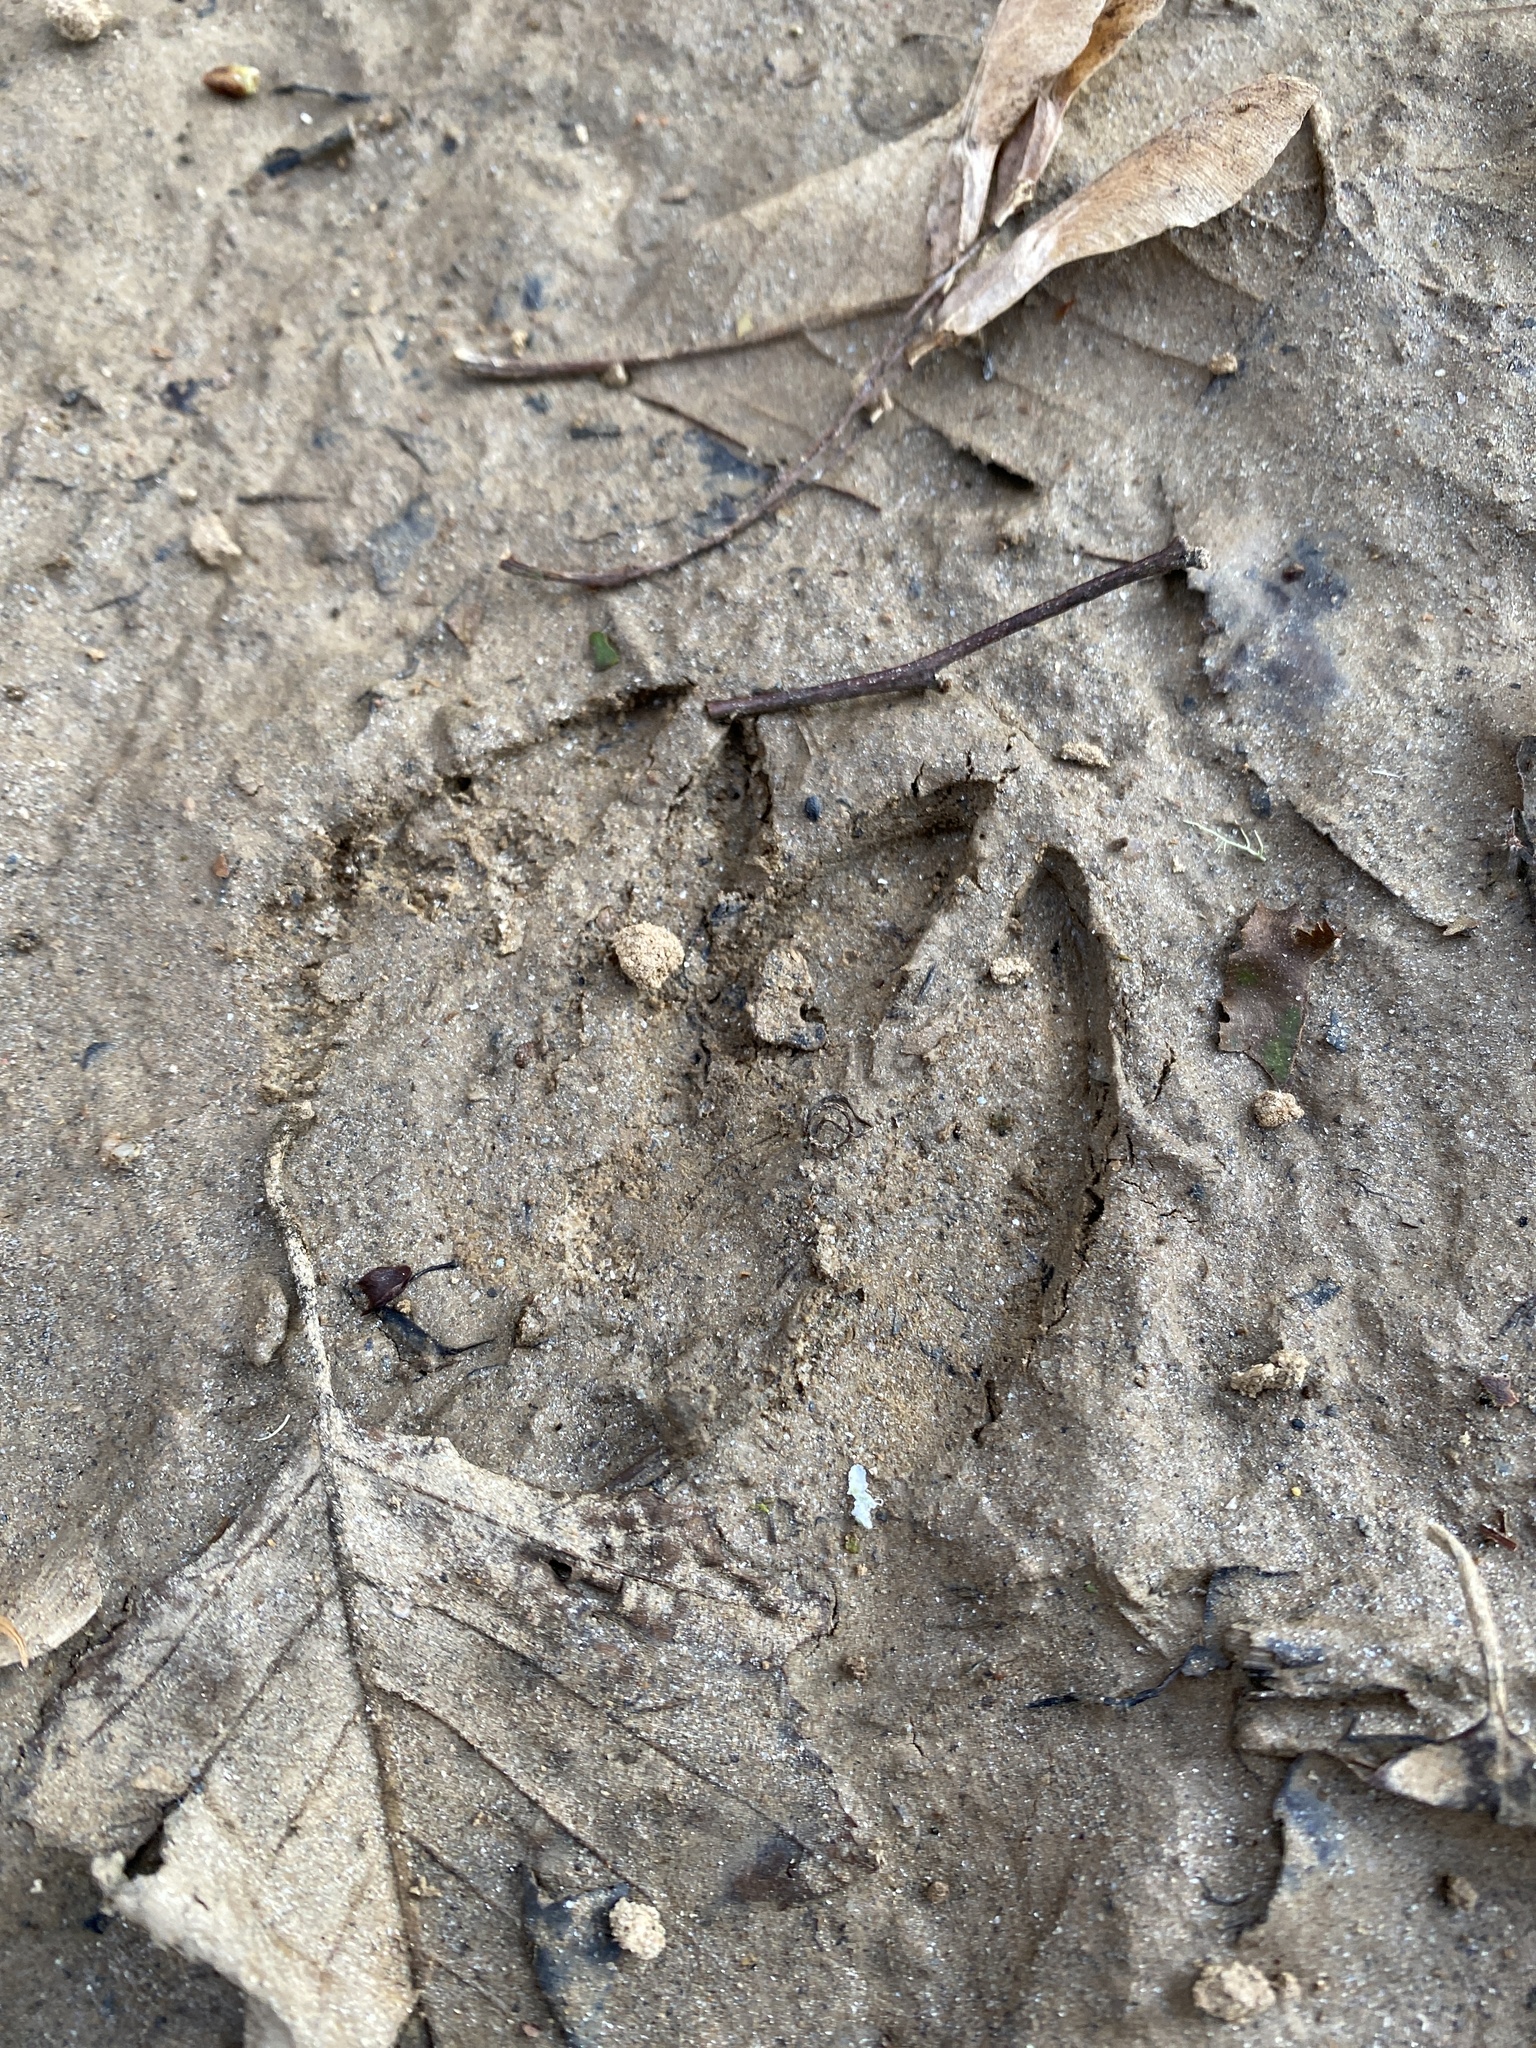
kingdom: Animalia
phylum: Chordata
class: Mammalia
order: Artiodactyla
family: Suidae
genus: Sus
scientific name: Sus scrofa
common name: Wild boar
